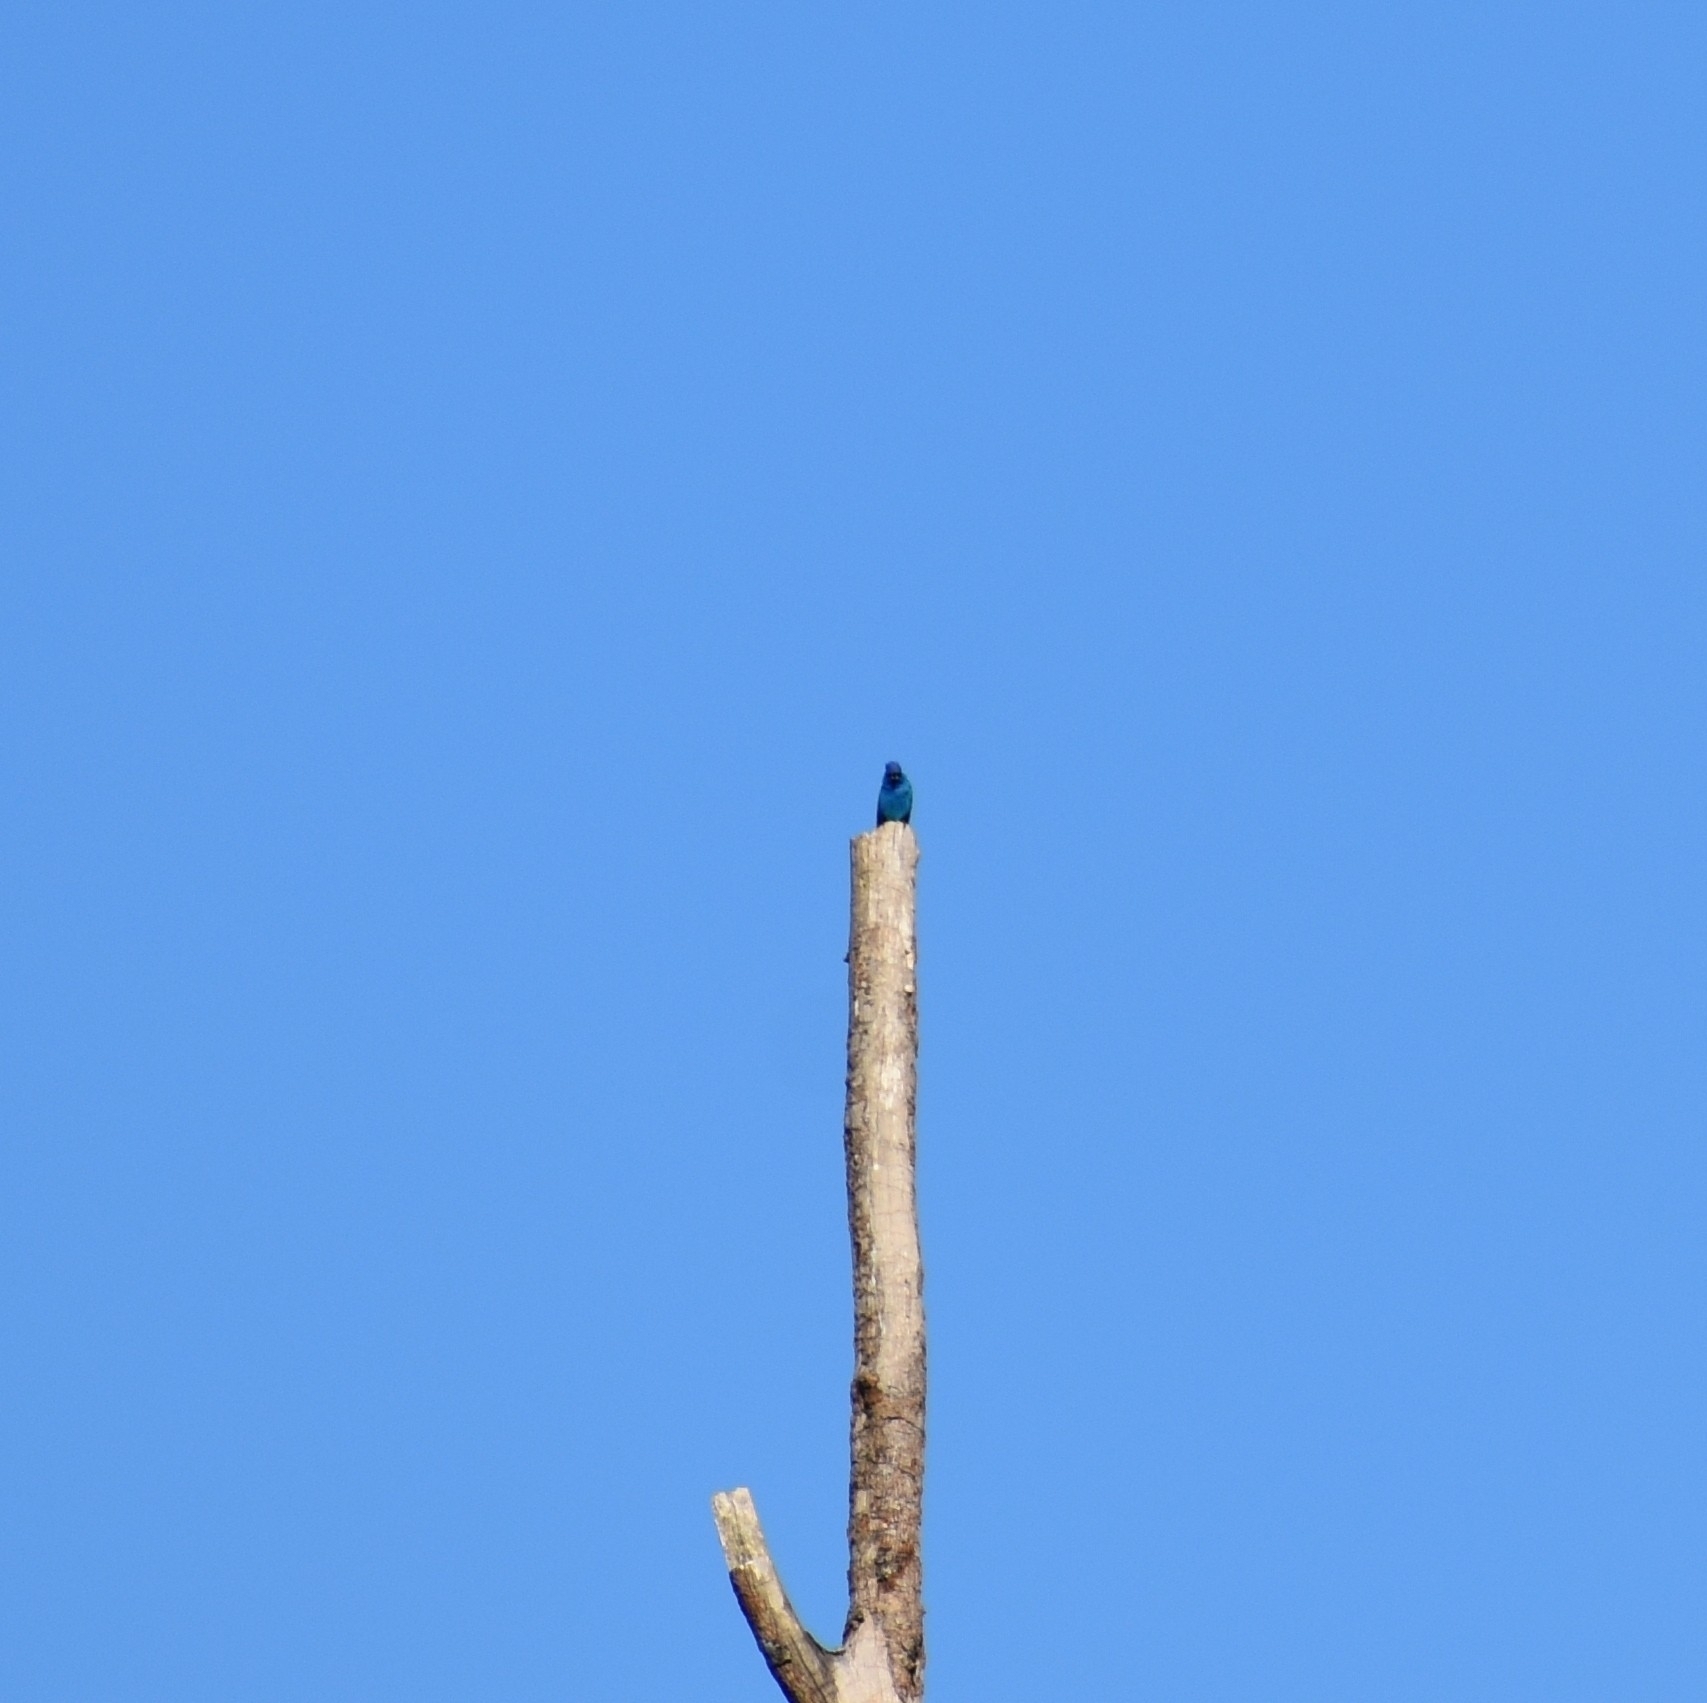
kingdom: Animalia
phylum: Chordata
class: Aves
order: Passeriformes
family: Cardinalidae
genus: Passerina
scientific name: Passerina cyanea
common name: Indigo bunting
